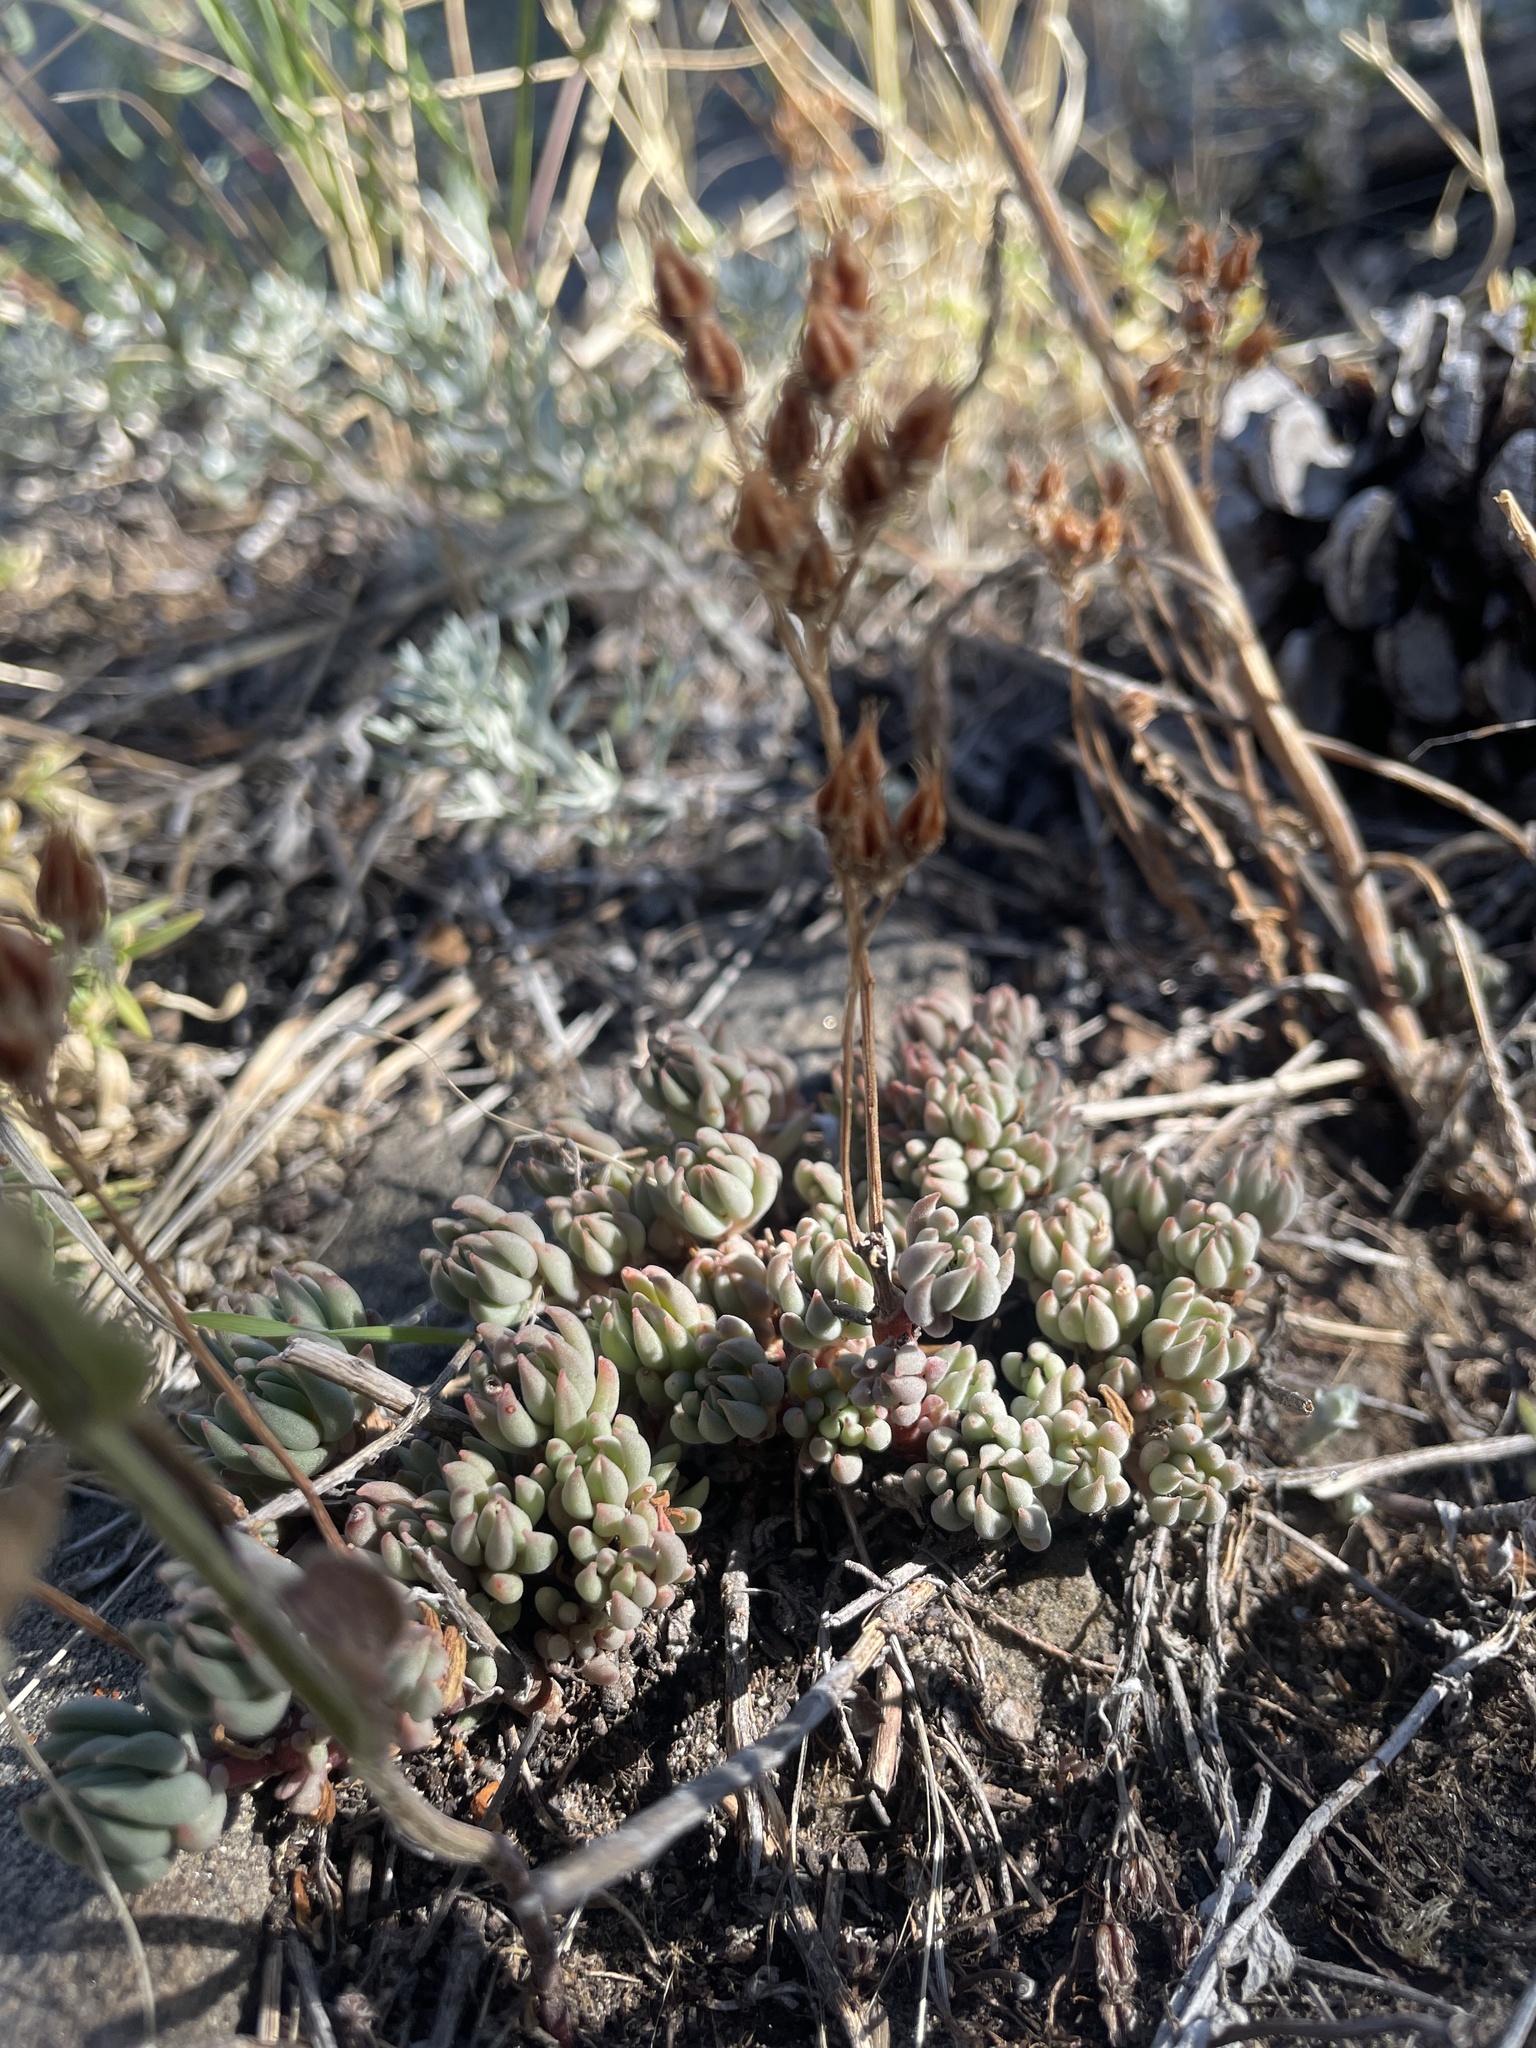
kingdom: Plantae
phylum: Tracheophyta
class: Magnoliopsida
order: Saxifragales
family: Crassulaceae
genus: Sedum
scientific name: Sedum lanceolatum
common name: Common stonecrop
